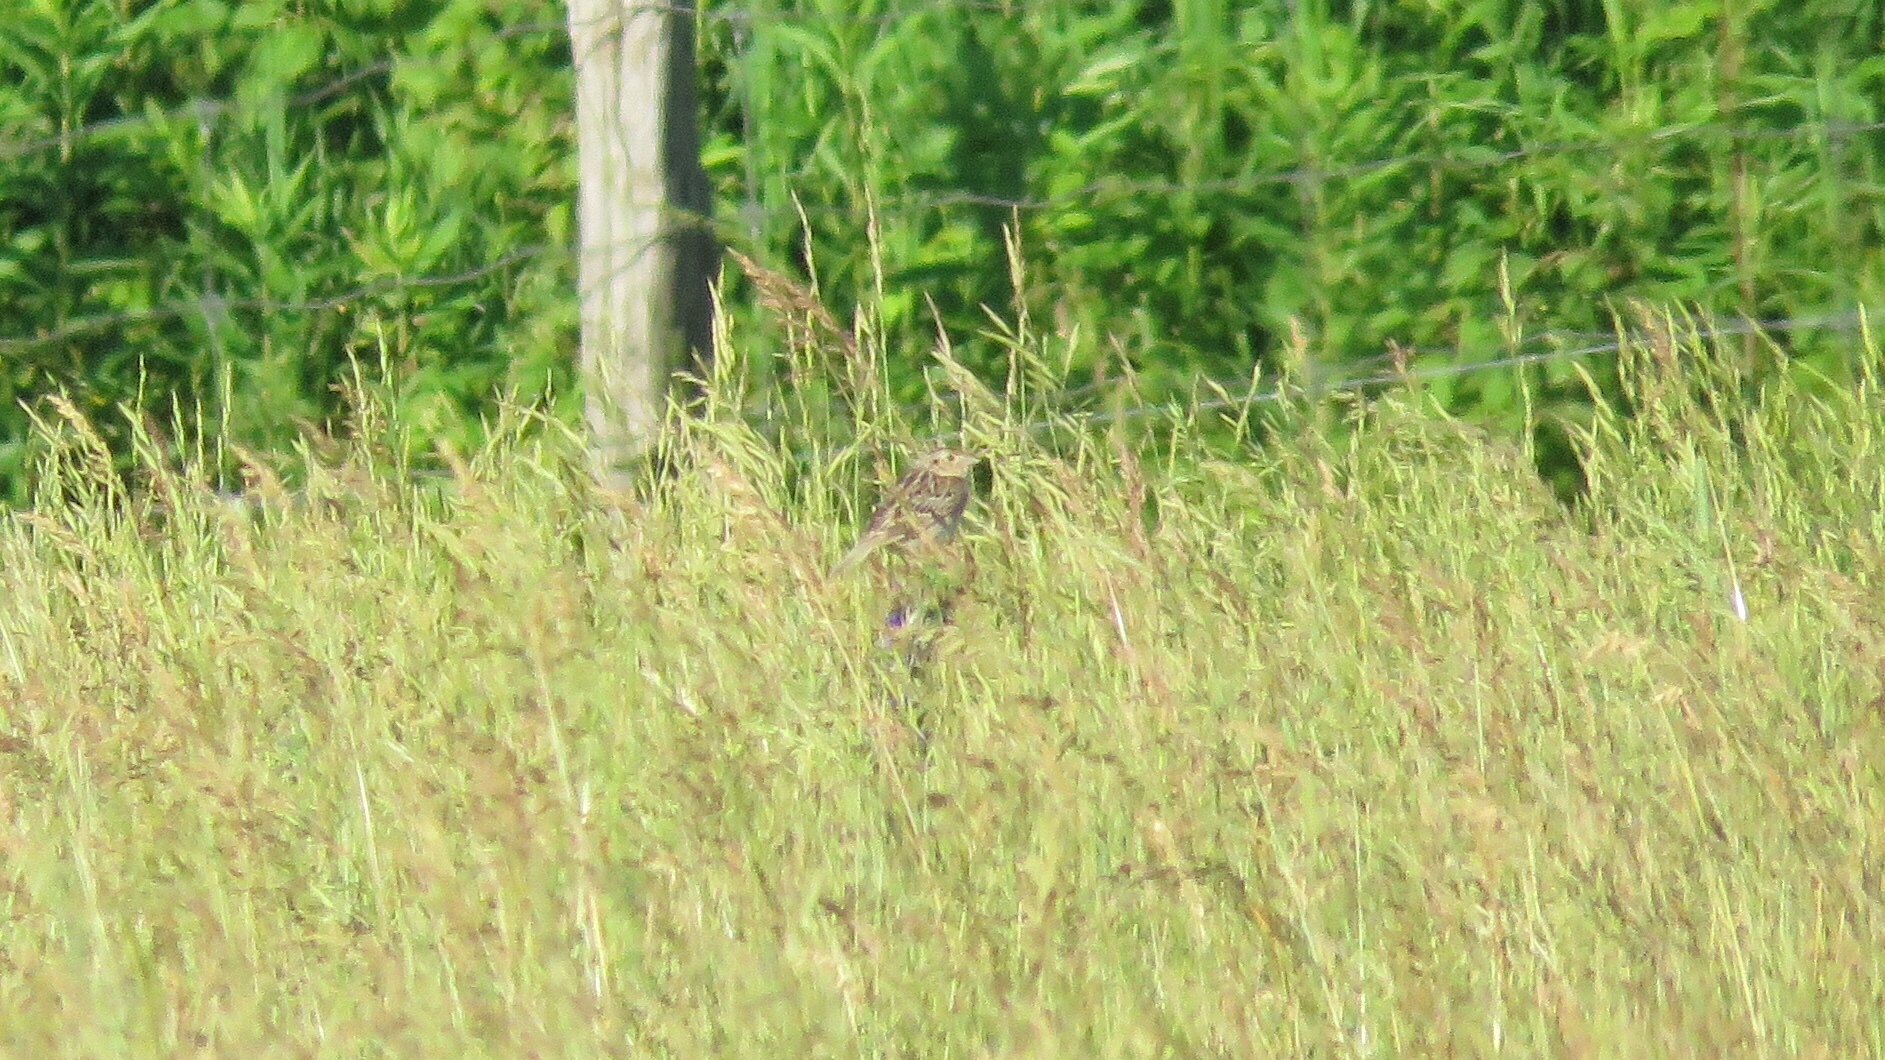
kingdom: Animalia
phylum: Chordata
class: Aves
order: Passeriformes
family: Passerellidae
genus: Ammodramus
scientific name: Ammodramus savannarum
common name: Grasshopper sparrow
